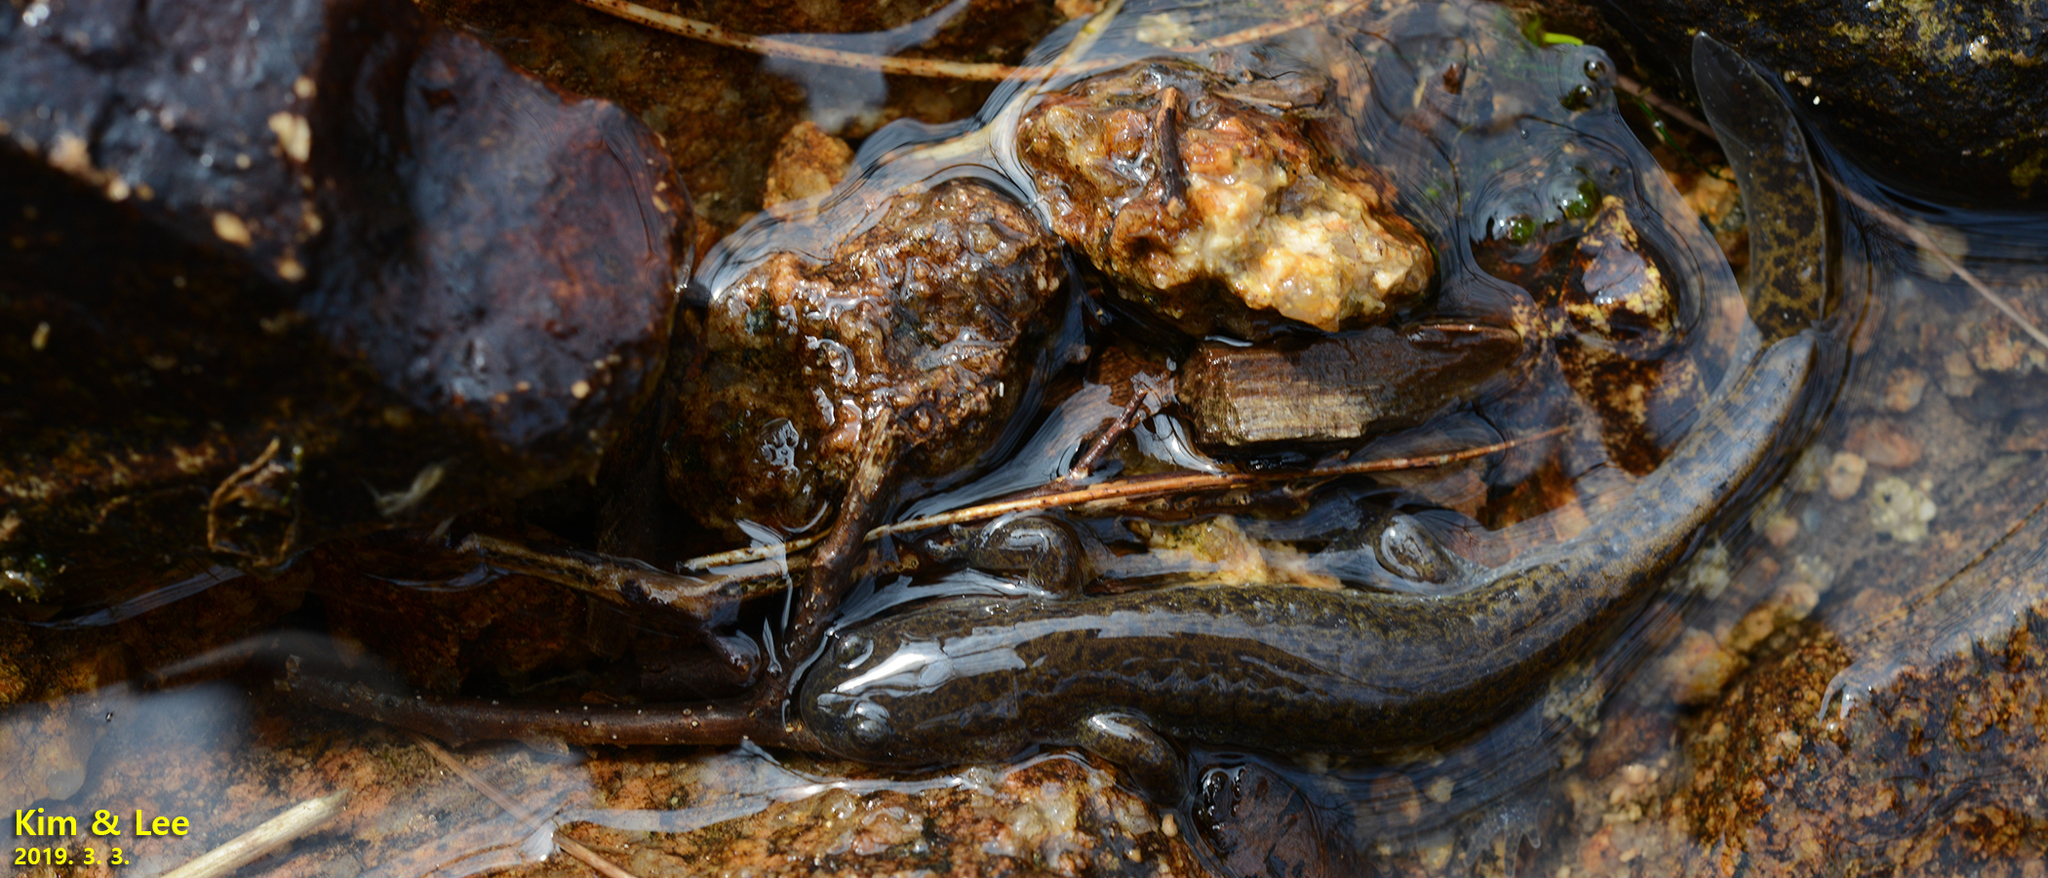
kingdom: Animalia
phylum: Chordata
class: Amphibia
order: Caudata
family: Hynobiidae
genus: Hynobius
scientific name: Hynobius geojeensis
